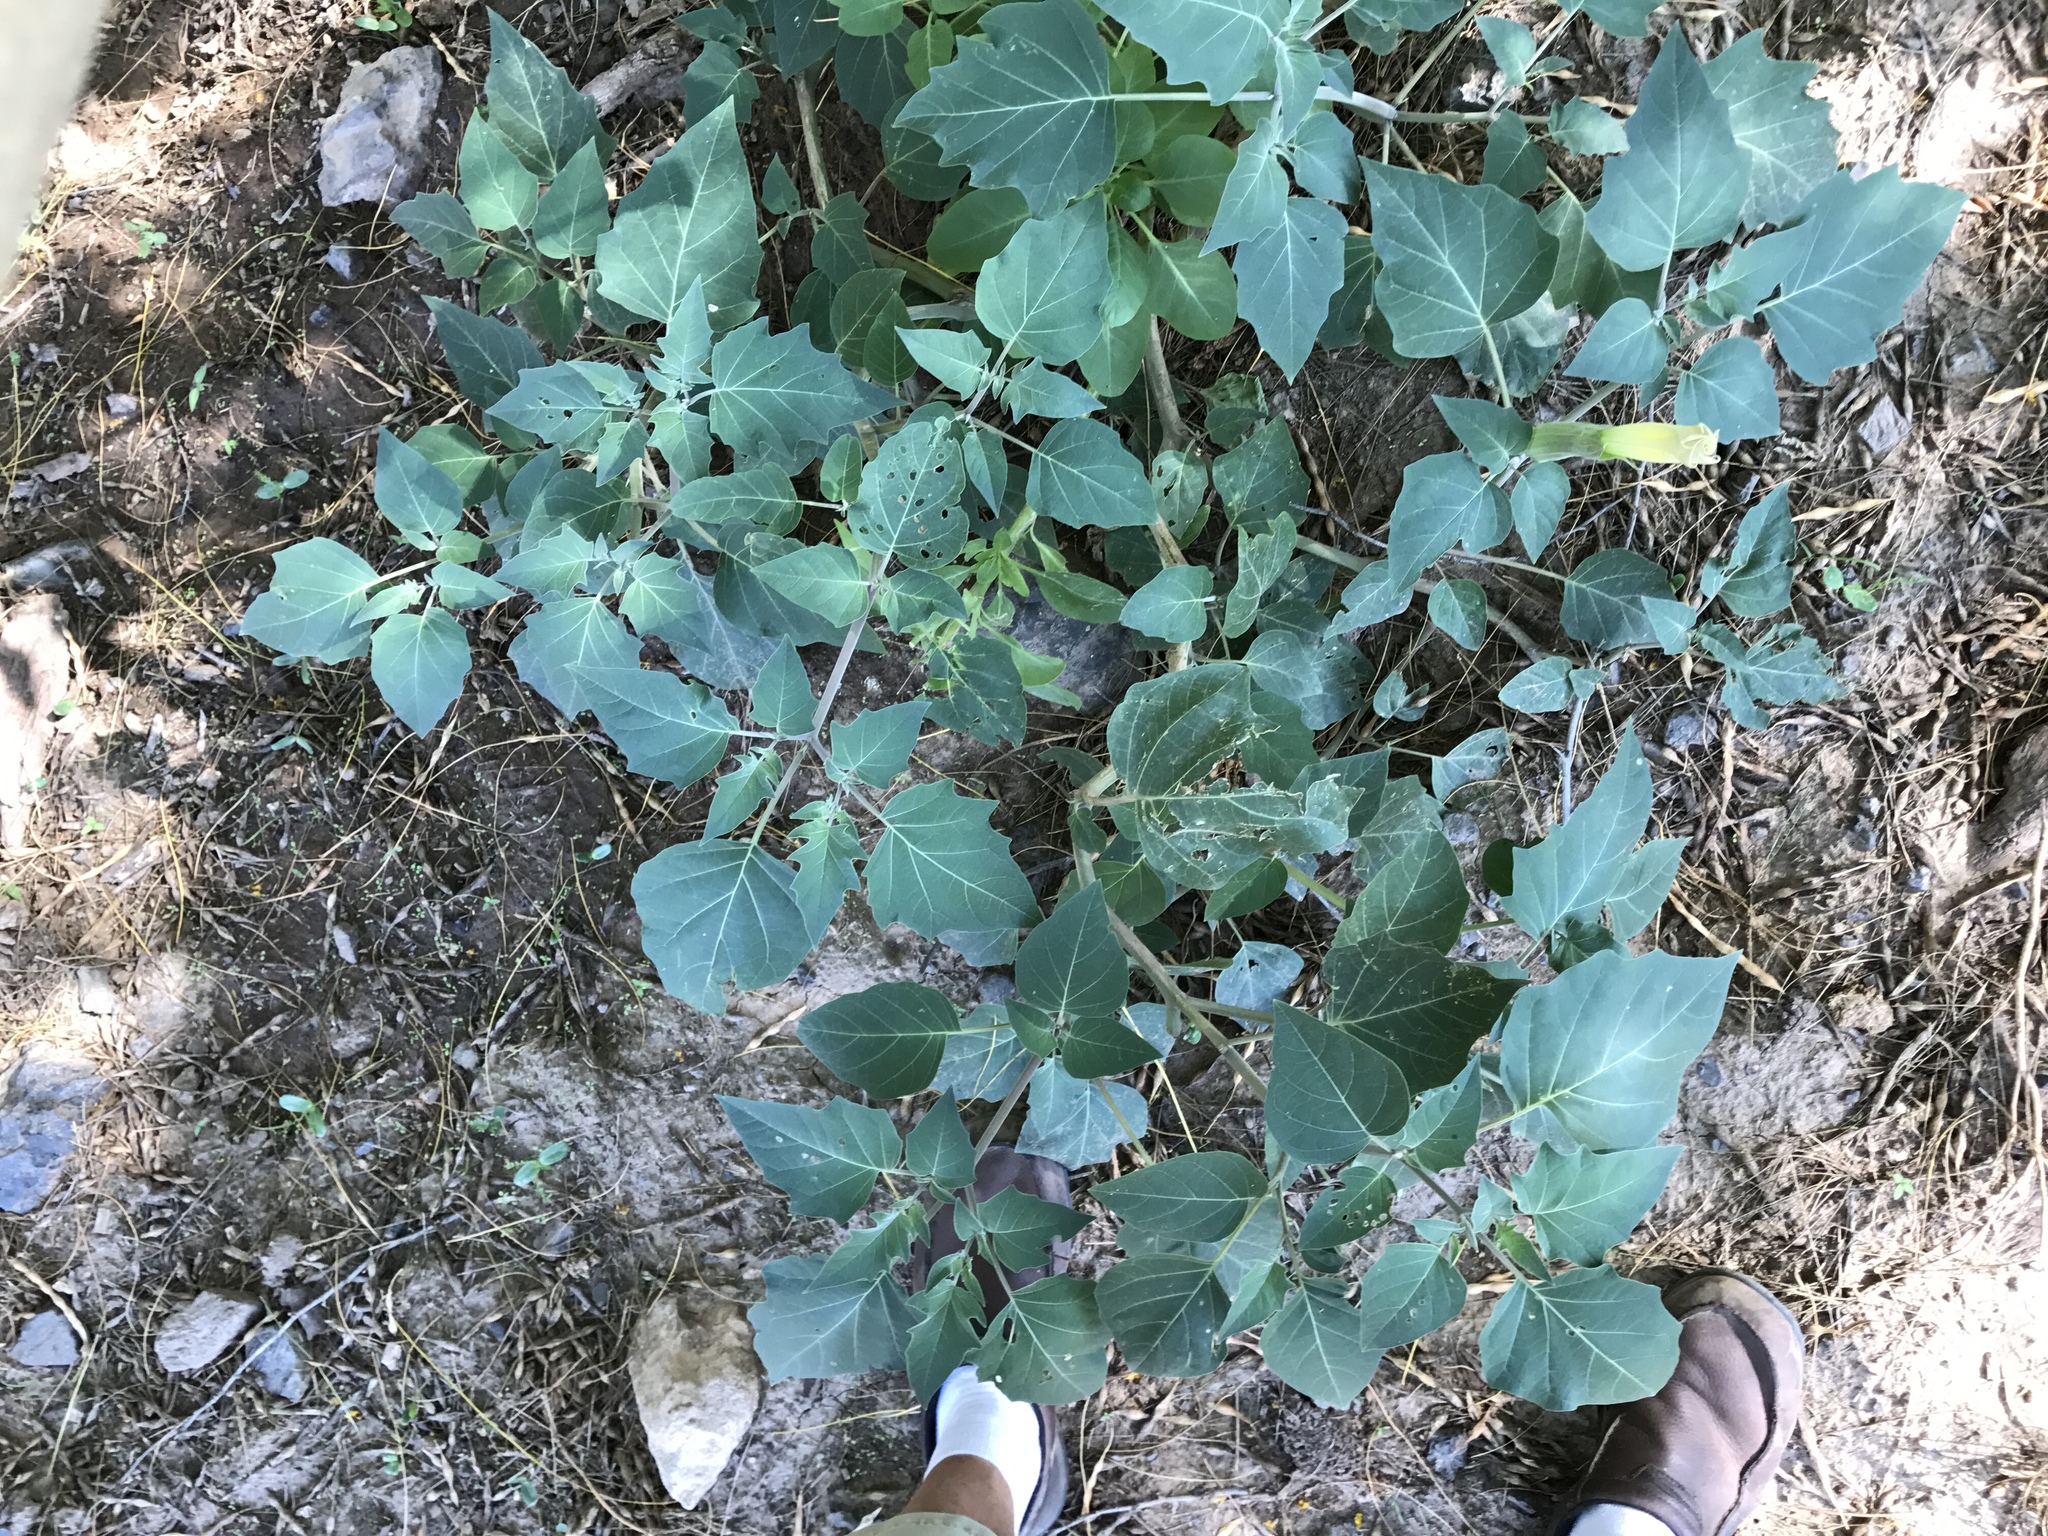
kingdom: Plantae
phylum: Tracheophyta
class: Magnoliopsida
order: Solanales
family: Solanaceae
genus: Datura
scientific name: Datura wrightii
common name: Sacred thorn-apple
